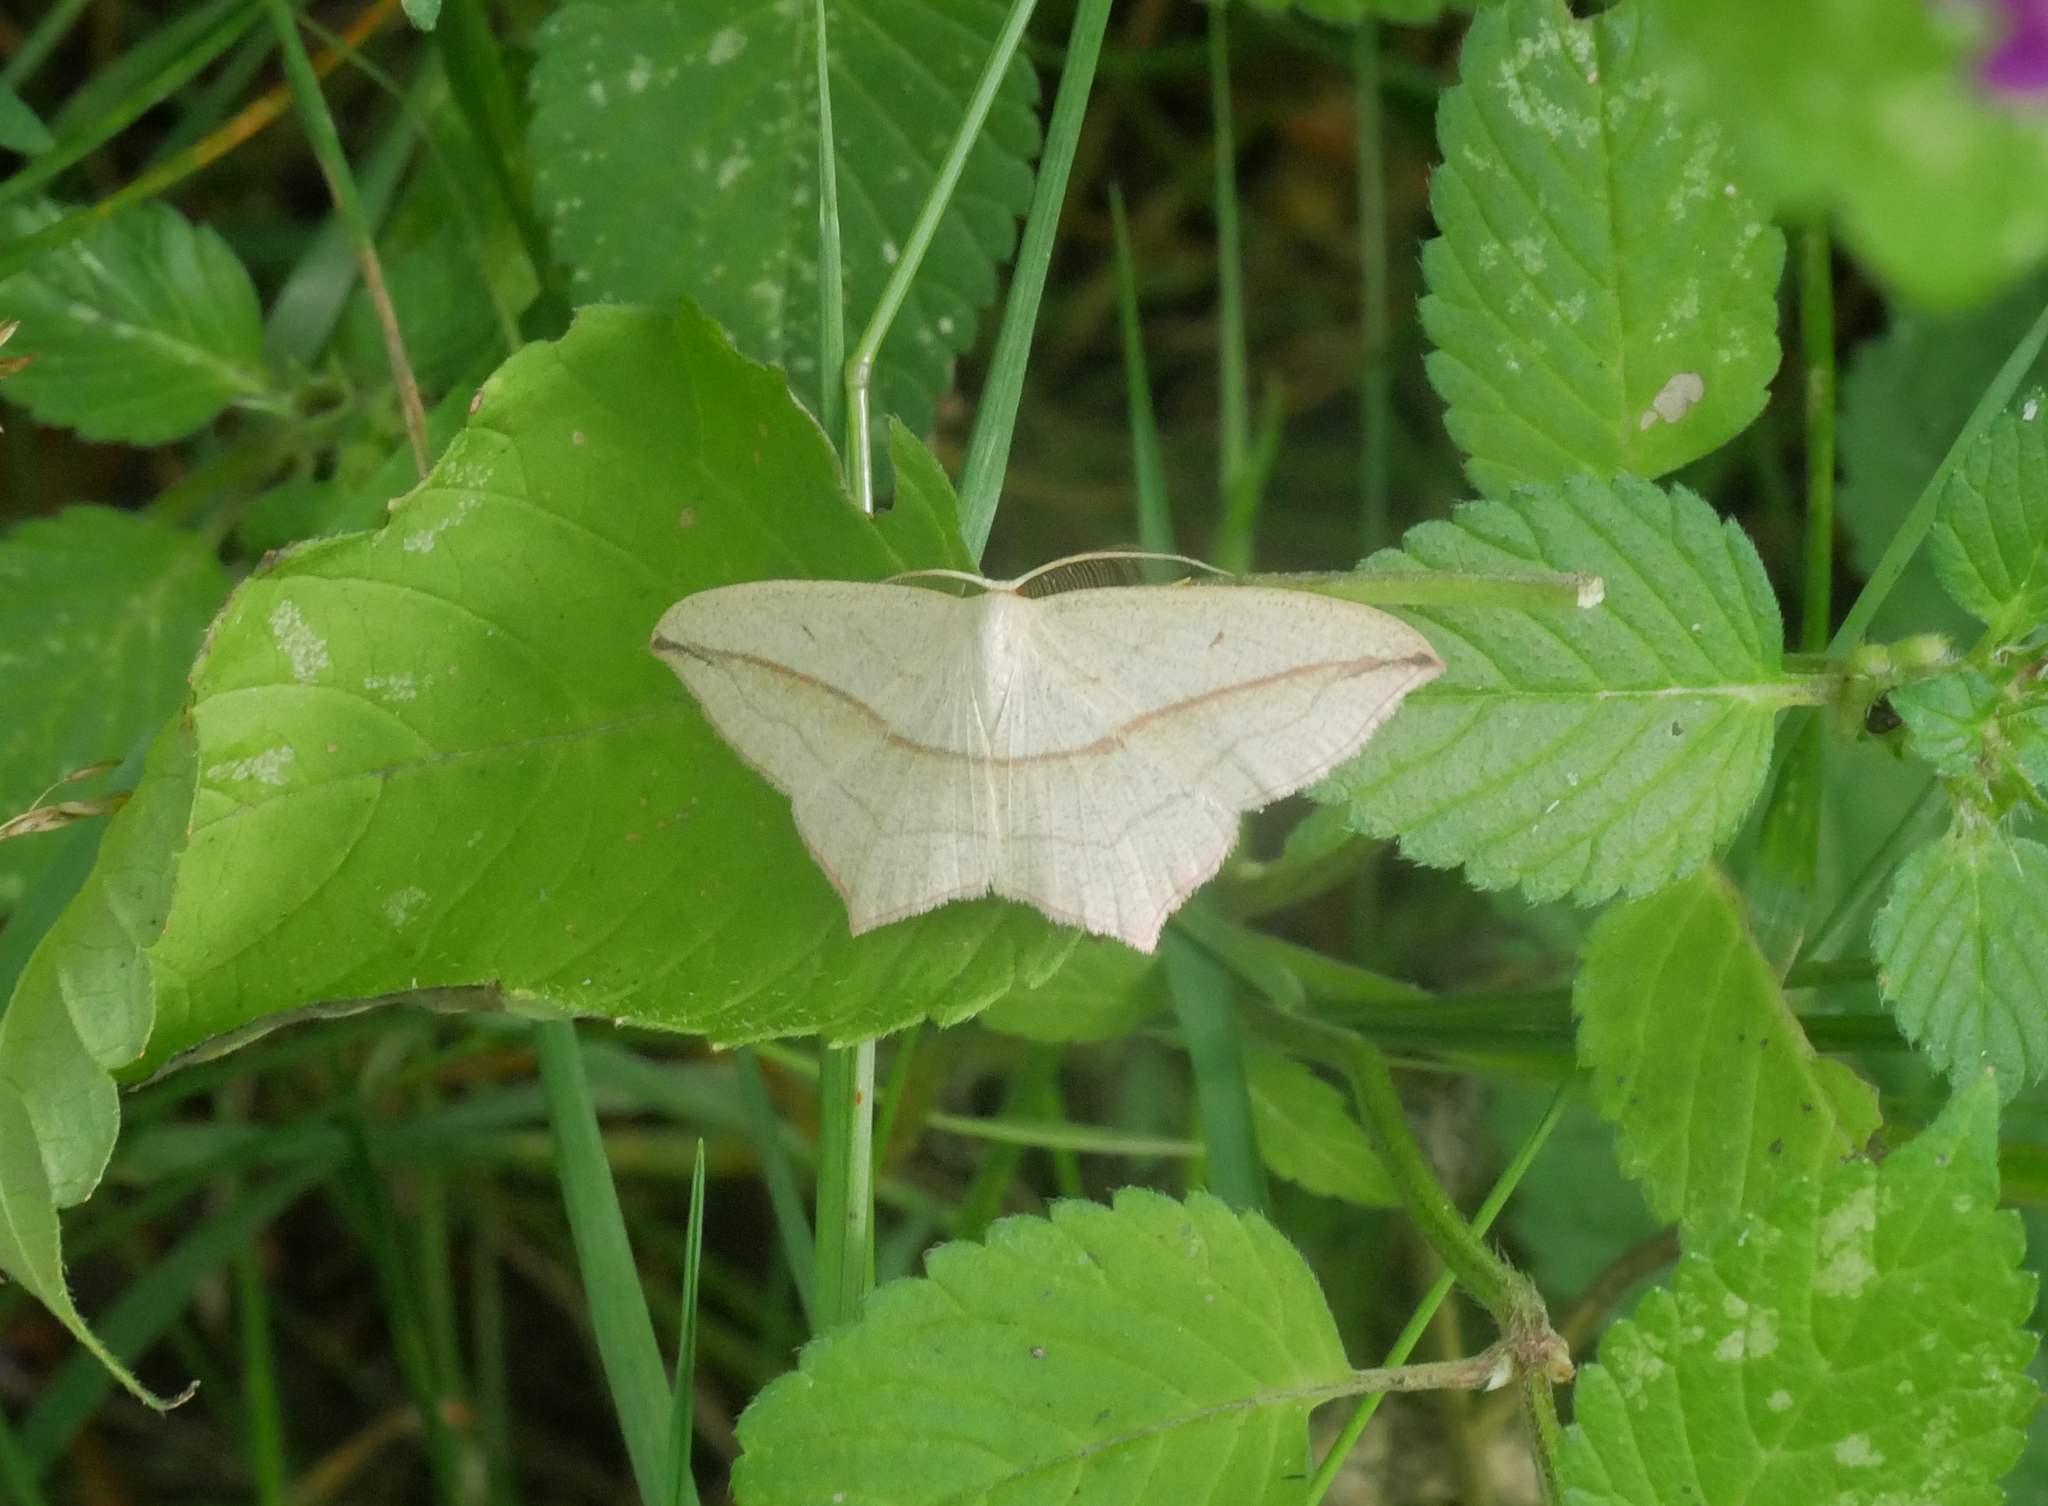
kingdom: Animalia
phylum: Arthropoda
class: Insecta
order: Lepidoptera
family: Geometridae
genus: Timandra
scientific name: Timandra comae
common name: Blood-vein
